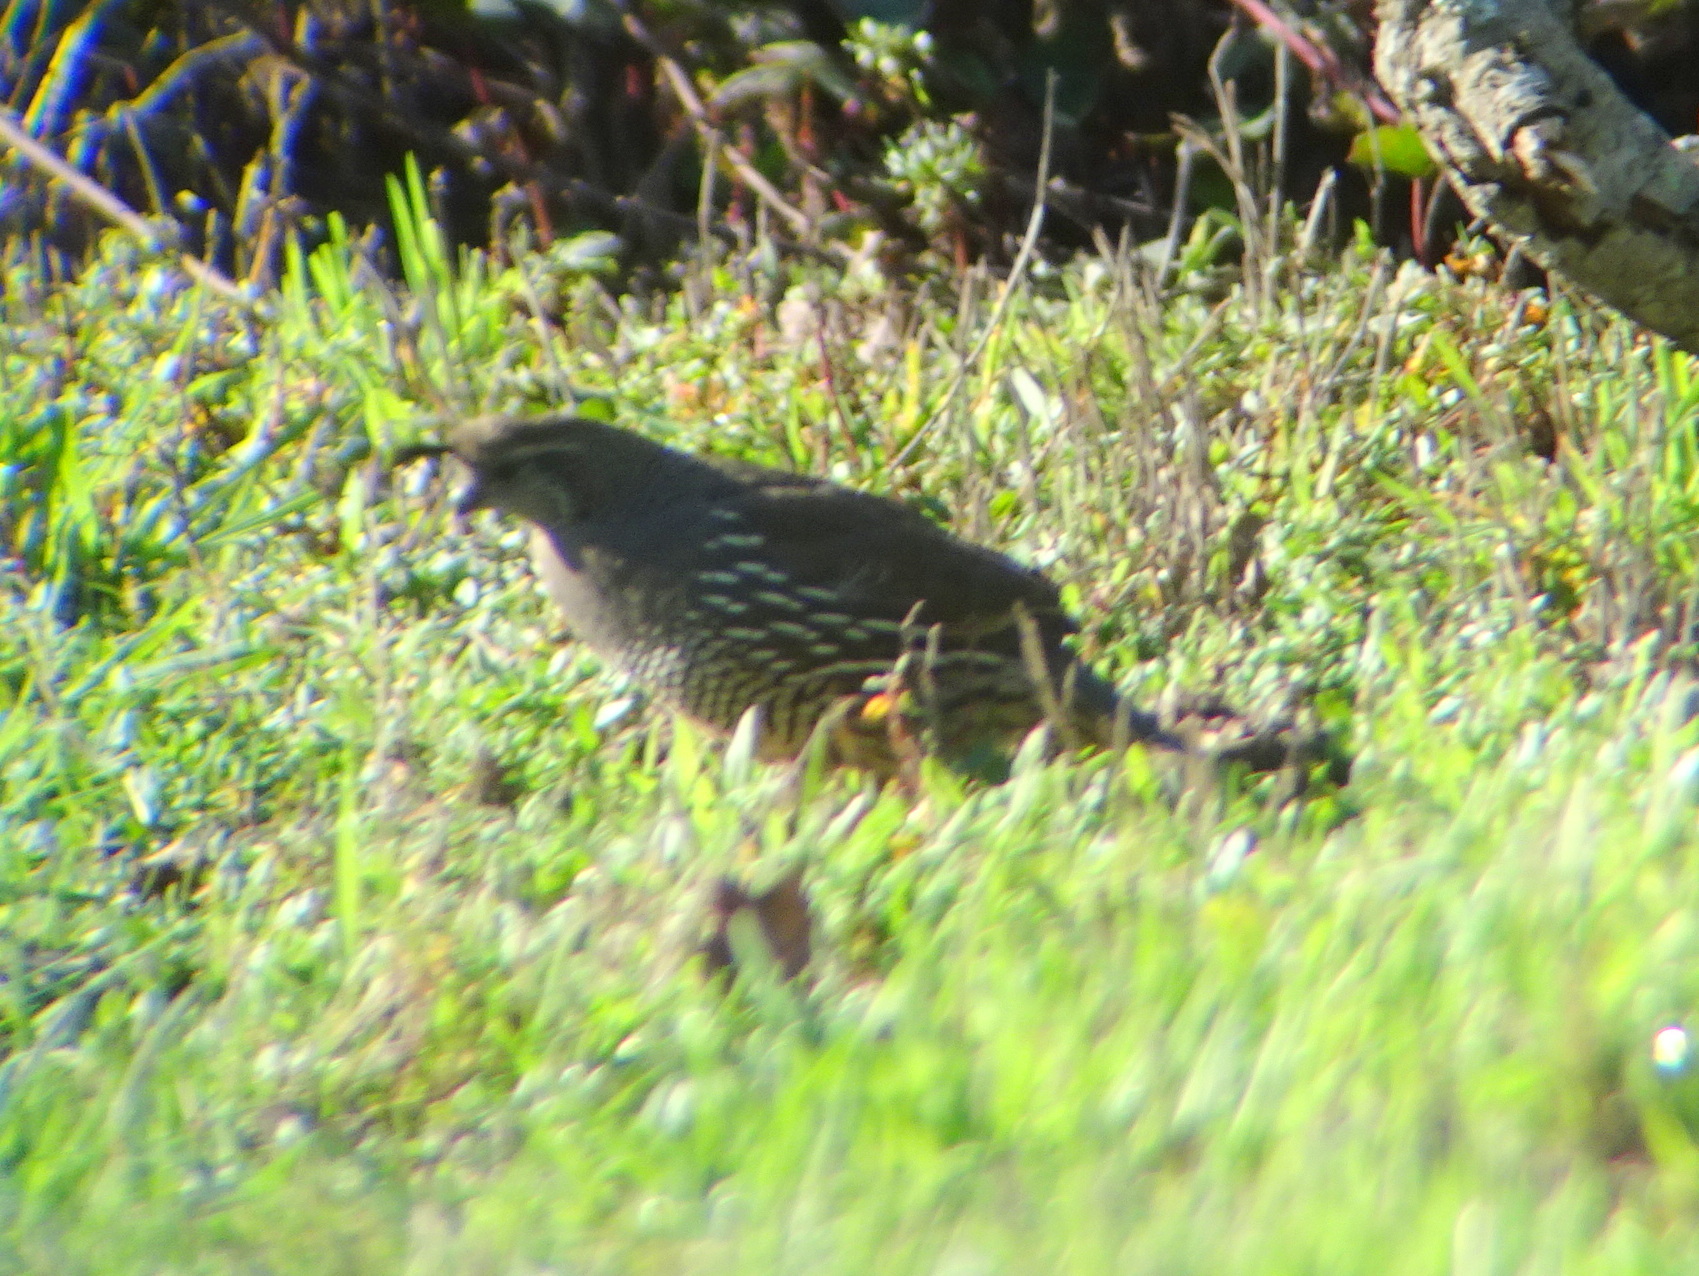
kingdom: Animalia
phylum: Chordata
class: Aves
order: Galliformes
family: Odontophoridae
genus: Callipepla
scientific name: Callipepla californica
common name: California quail
